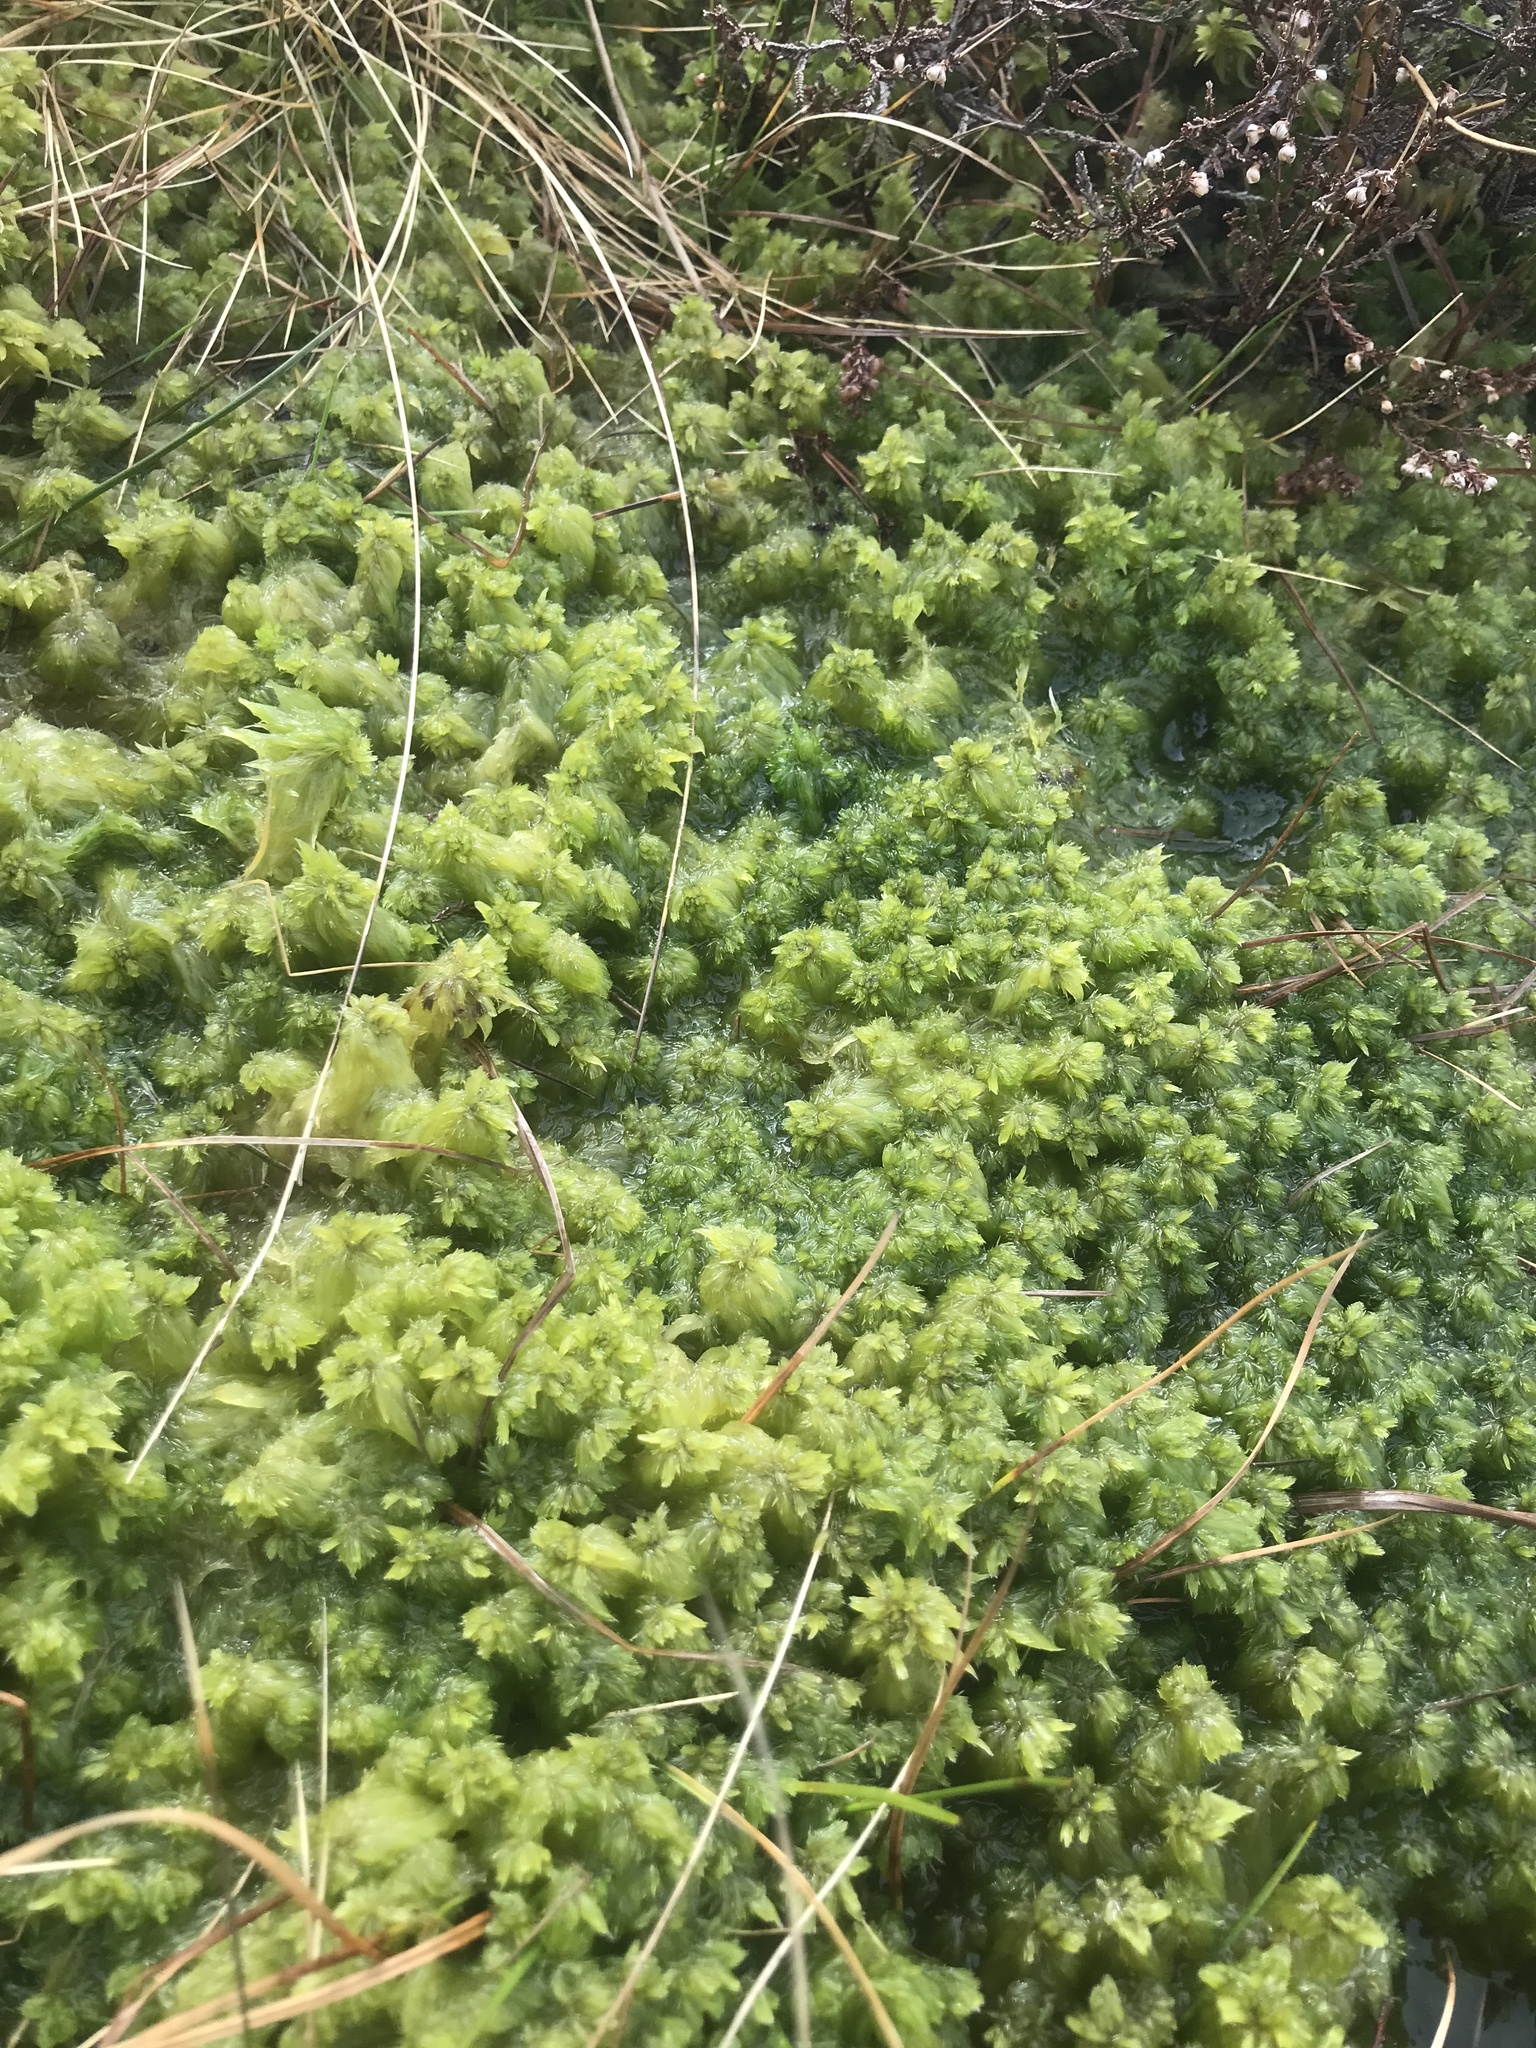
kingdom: Plantae
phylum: Bryophyta
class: Sphagnopsida
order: Sphagnales
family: Sphagnaceae
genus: Sphagnum
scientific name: Sphagnum cuspidatum
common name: Feathery peat moss
